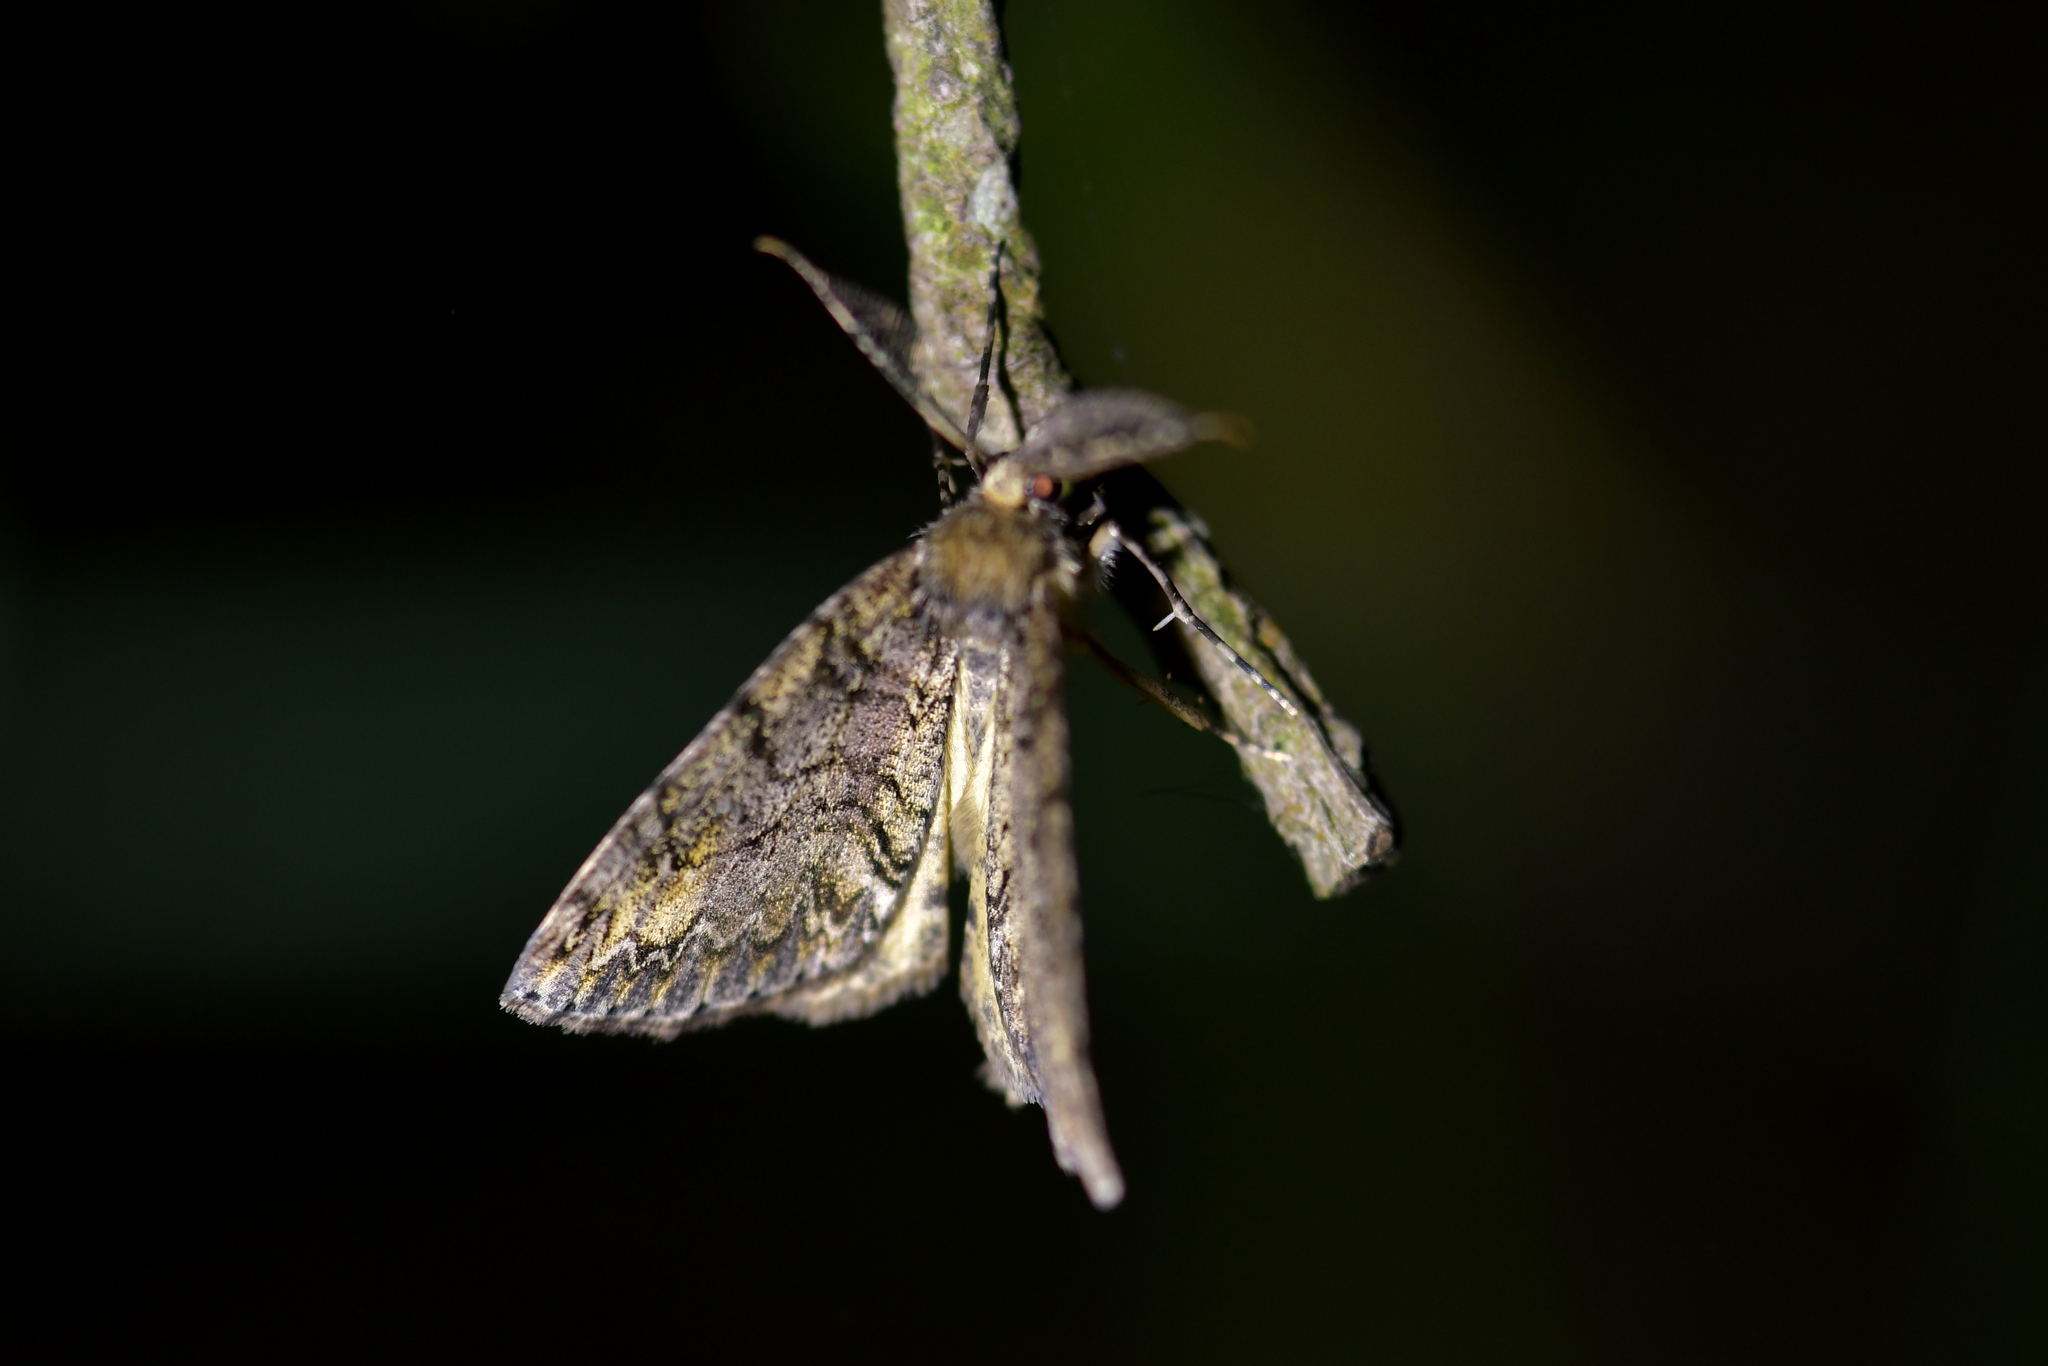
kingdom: Animalia
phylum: Arthropoda
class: Insecta
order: Lepidoptera
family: Geometridae
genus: Pseudocoremia
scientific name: Pseudocoremia suavis
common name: Common forest looper
